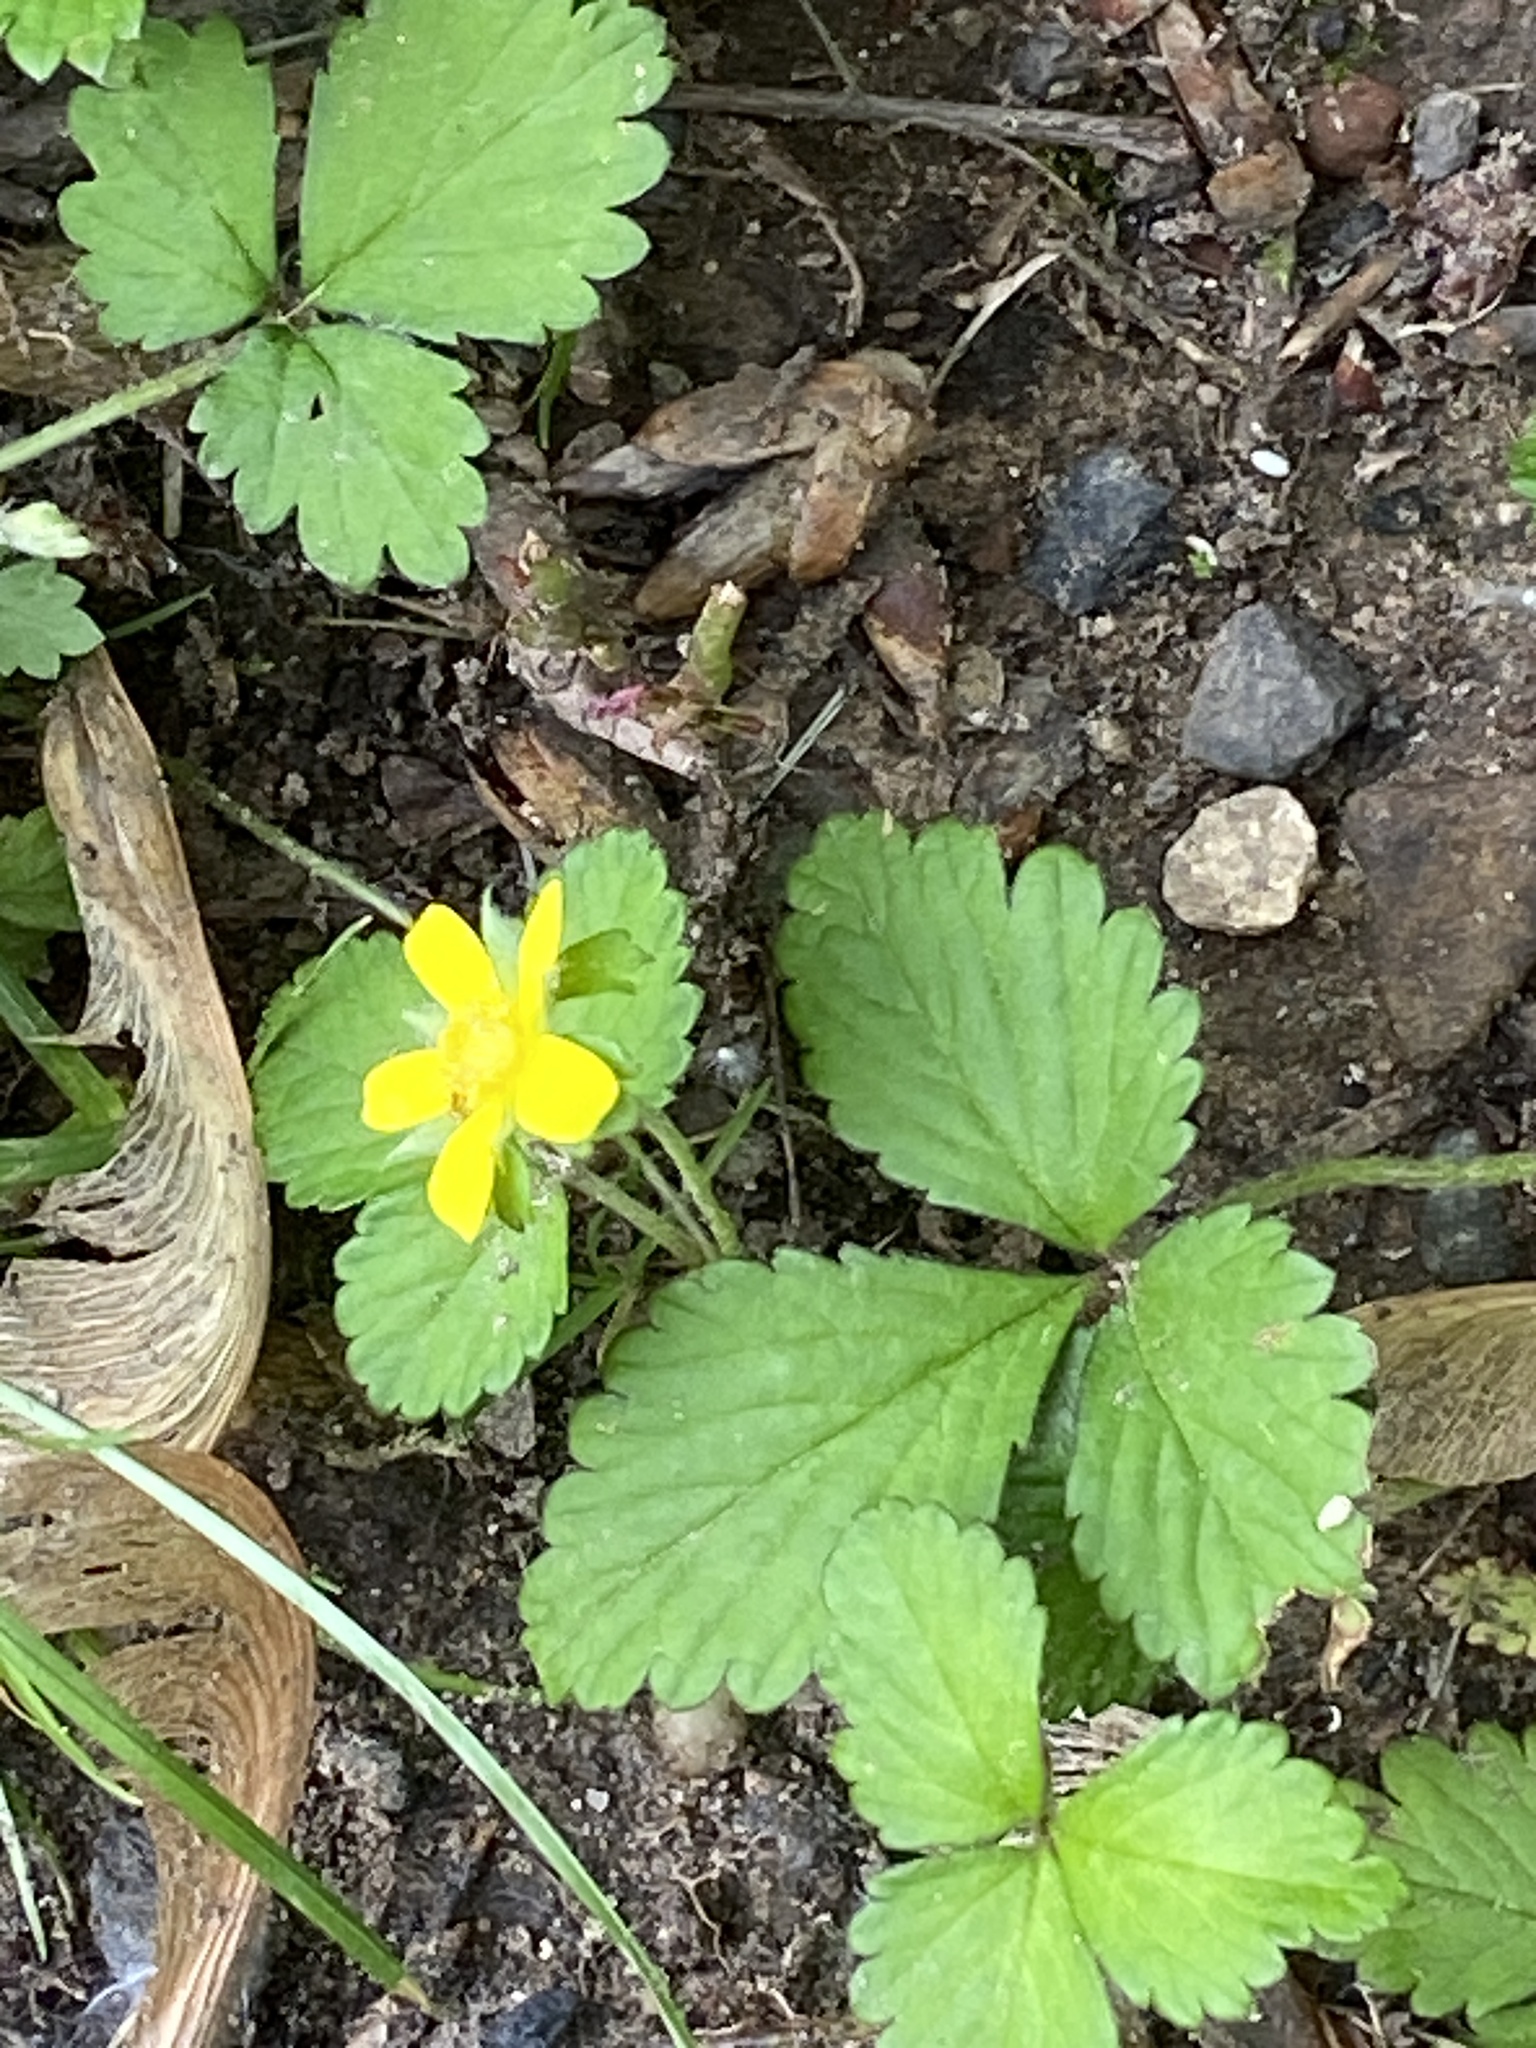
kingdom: Plantae
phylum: Tracheophyta
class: Magnoliopsida
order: Rosales
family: Rosaceae
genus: Potentilla
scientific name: Potentilla indica
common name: Yellow-flowered strawberry
